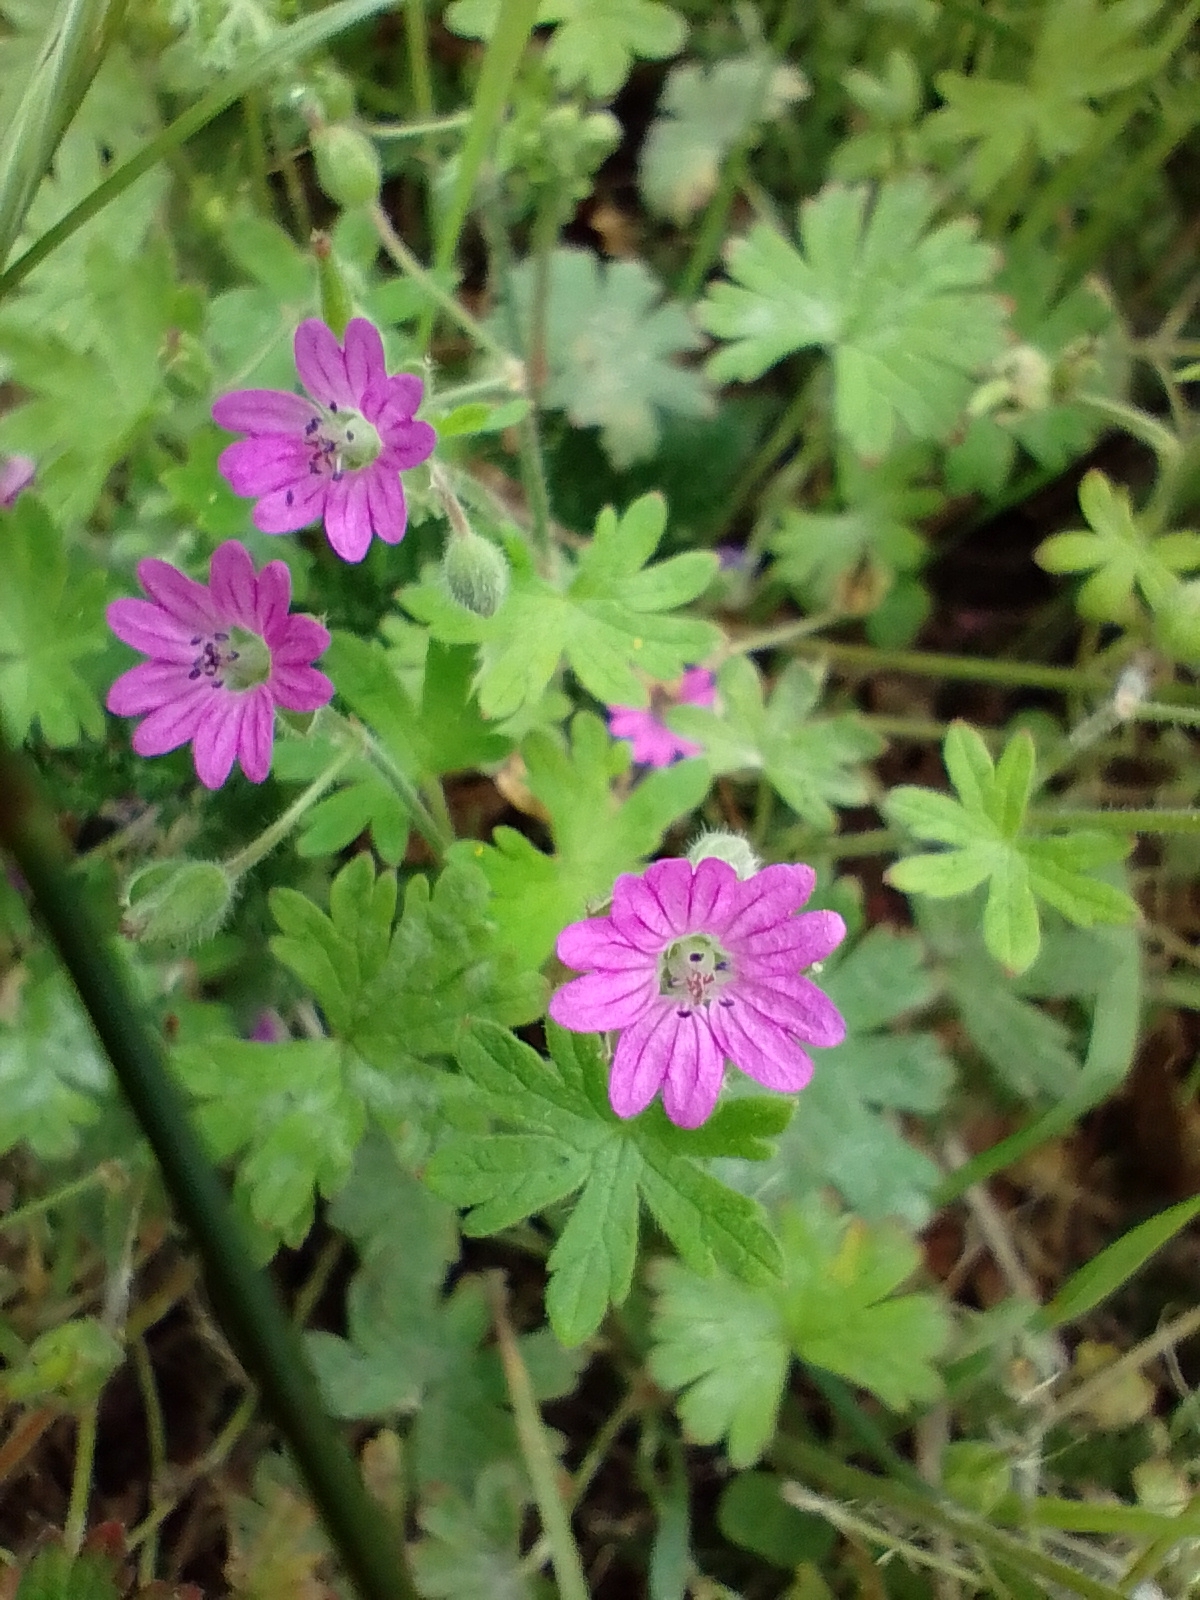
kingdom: Plantae
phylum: Tracheophyta
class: Magnoliopsida
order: Geraniales
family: Geraniaceae
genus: Geranium
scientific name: Geranium molle
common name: Dove's-foot crane's-bill
